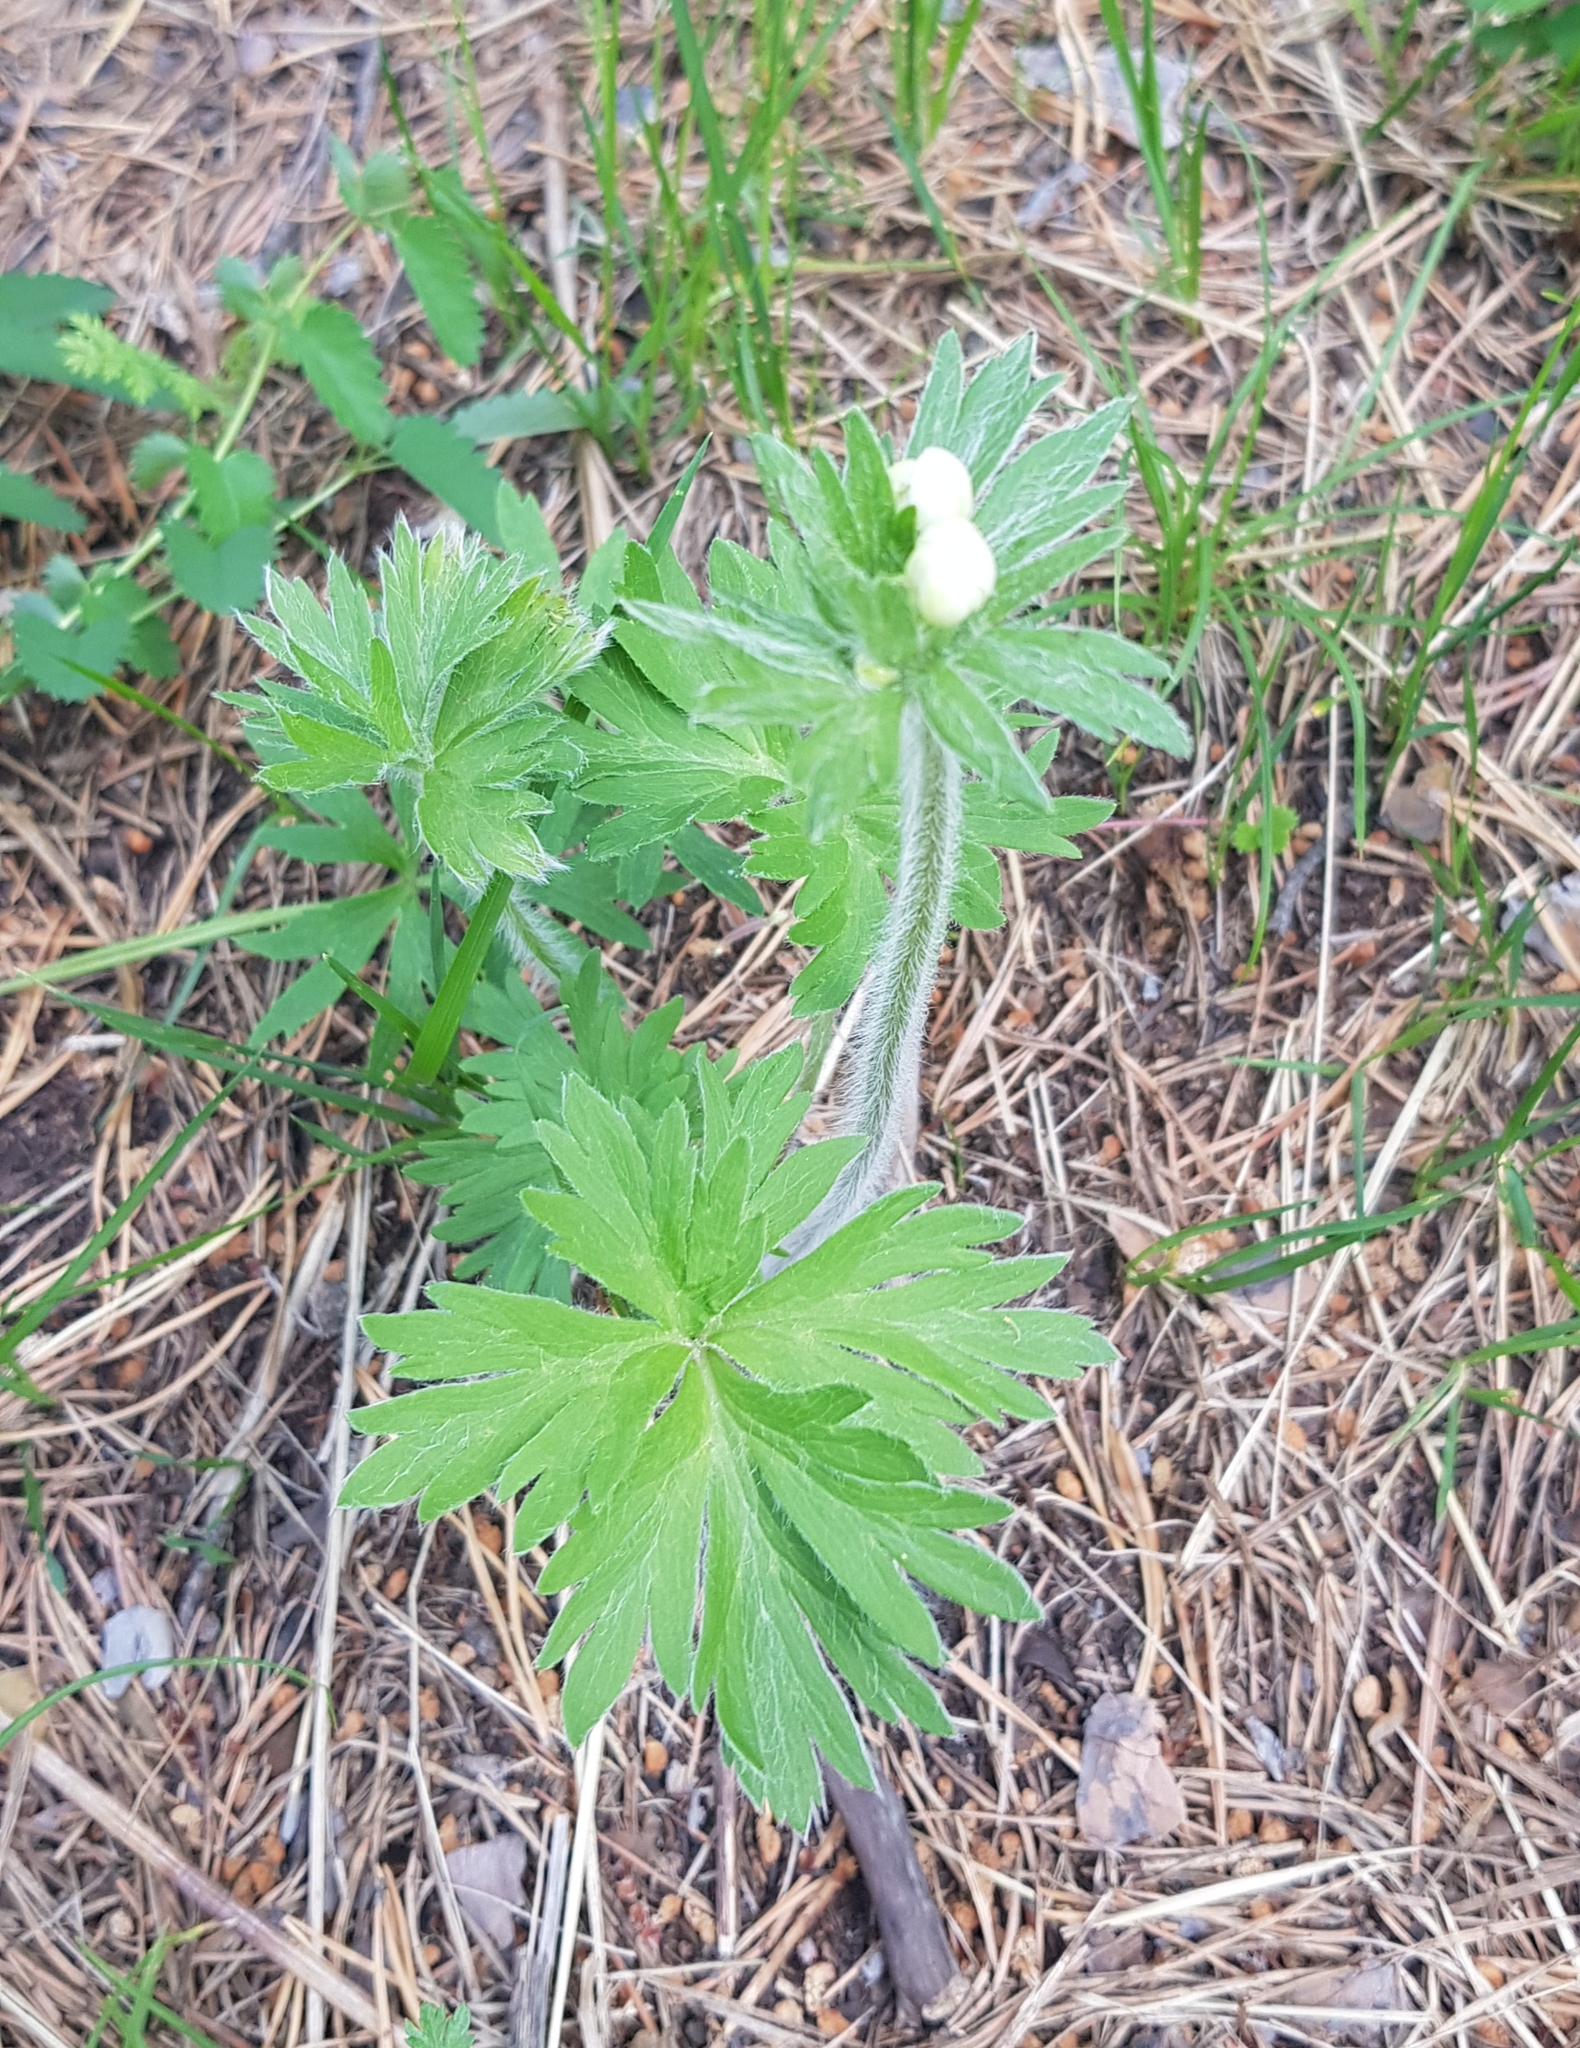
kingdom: Plantae
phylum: Tracheophyta
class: Magnoliopsida
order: Ranunculales
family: Ranunculaceae
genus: Anemonastrum
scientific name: Anemonastrum narcissiflorum
